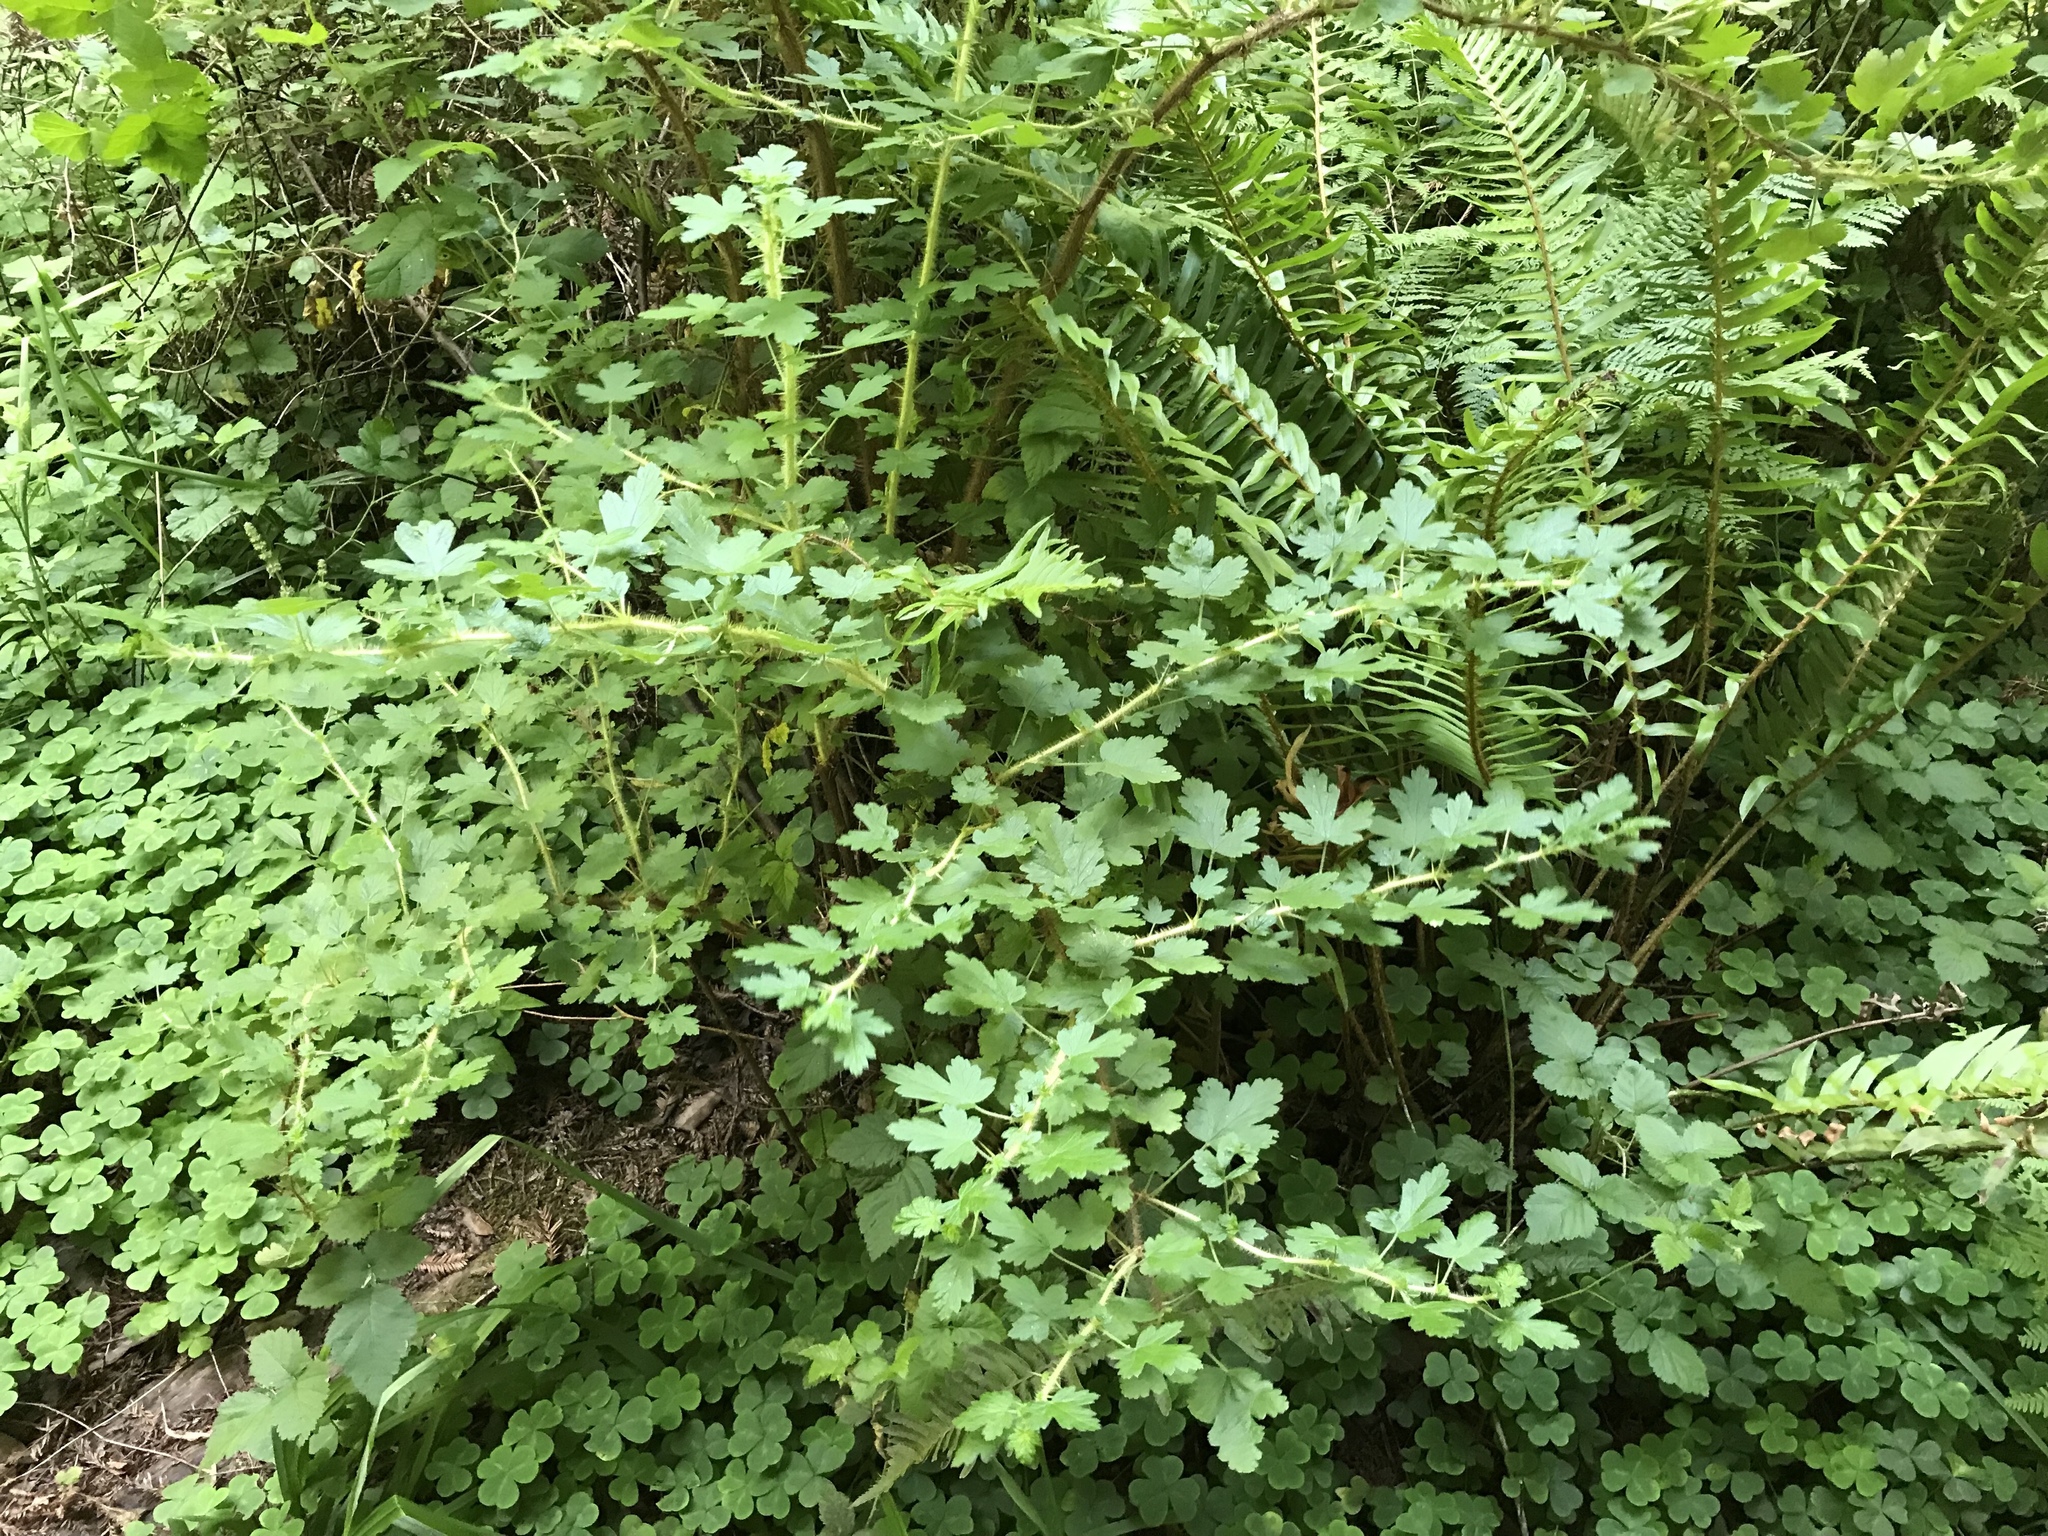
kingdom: Plantae
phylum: Tracheophyta
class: Magnoliopsida
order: Saxifragales
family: Grossulariaceae
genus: Ribes
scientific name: Ribes menziesii
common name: Canyon gooseberry
